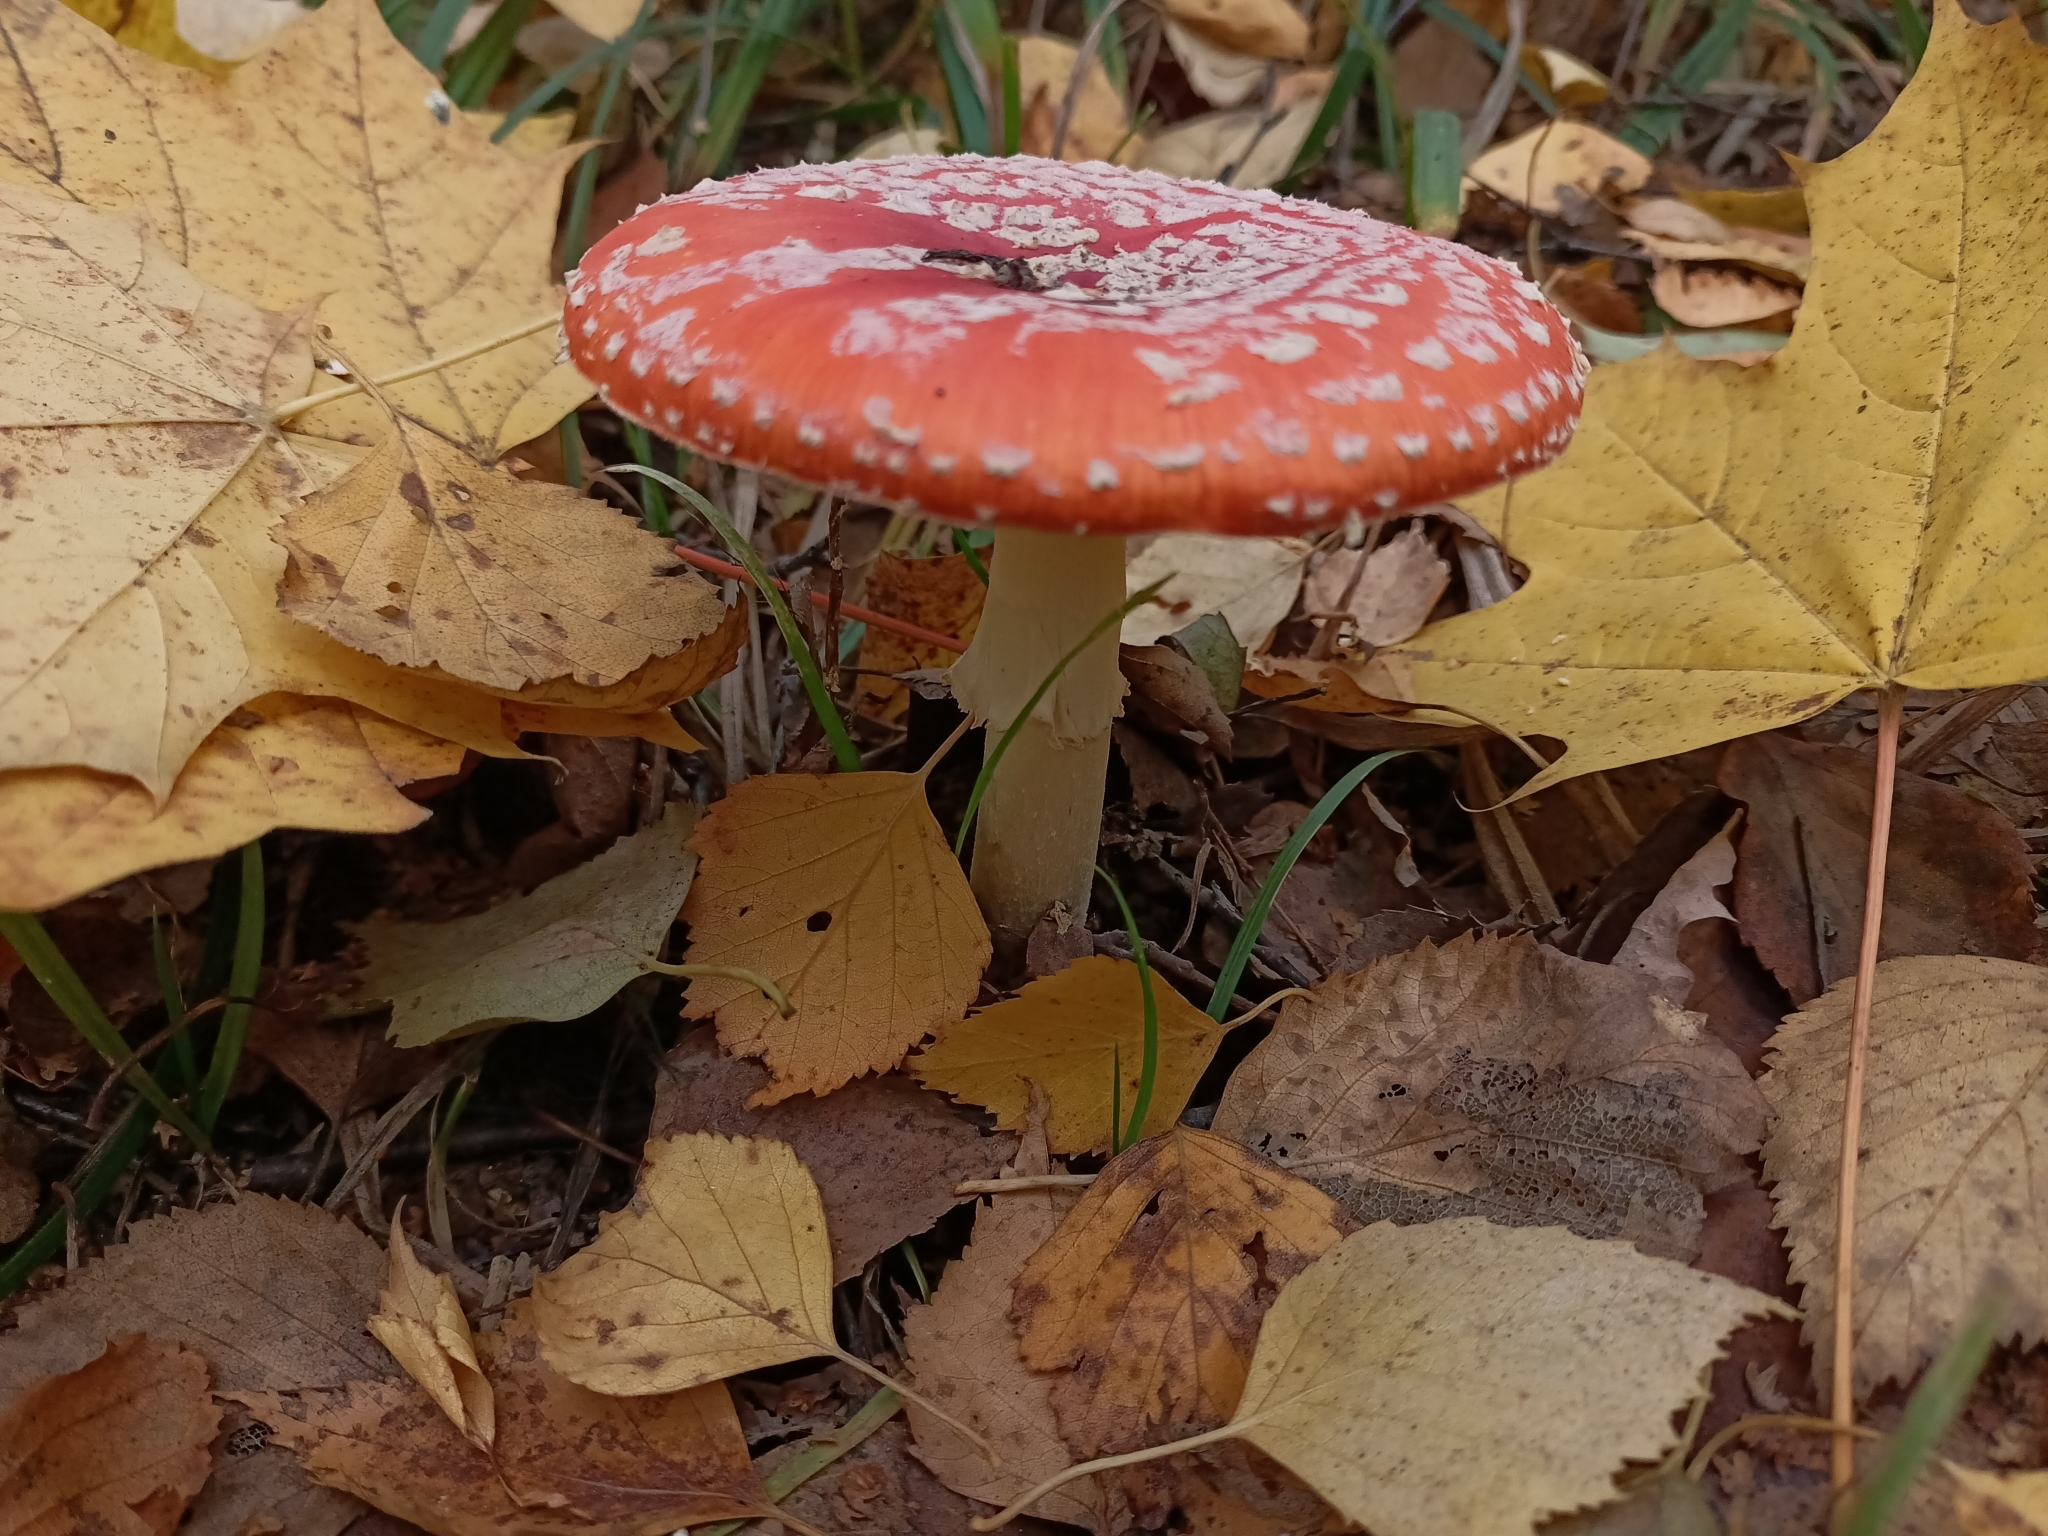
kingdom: Fungi
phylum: Basidiomycota
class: Agaricomycetes
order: Agaricales
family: Amanitaceae
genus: Amanita
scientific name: Amanita muscaria
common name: Fly agaric
